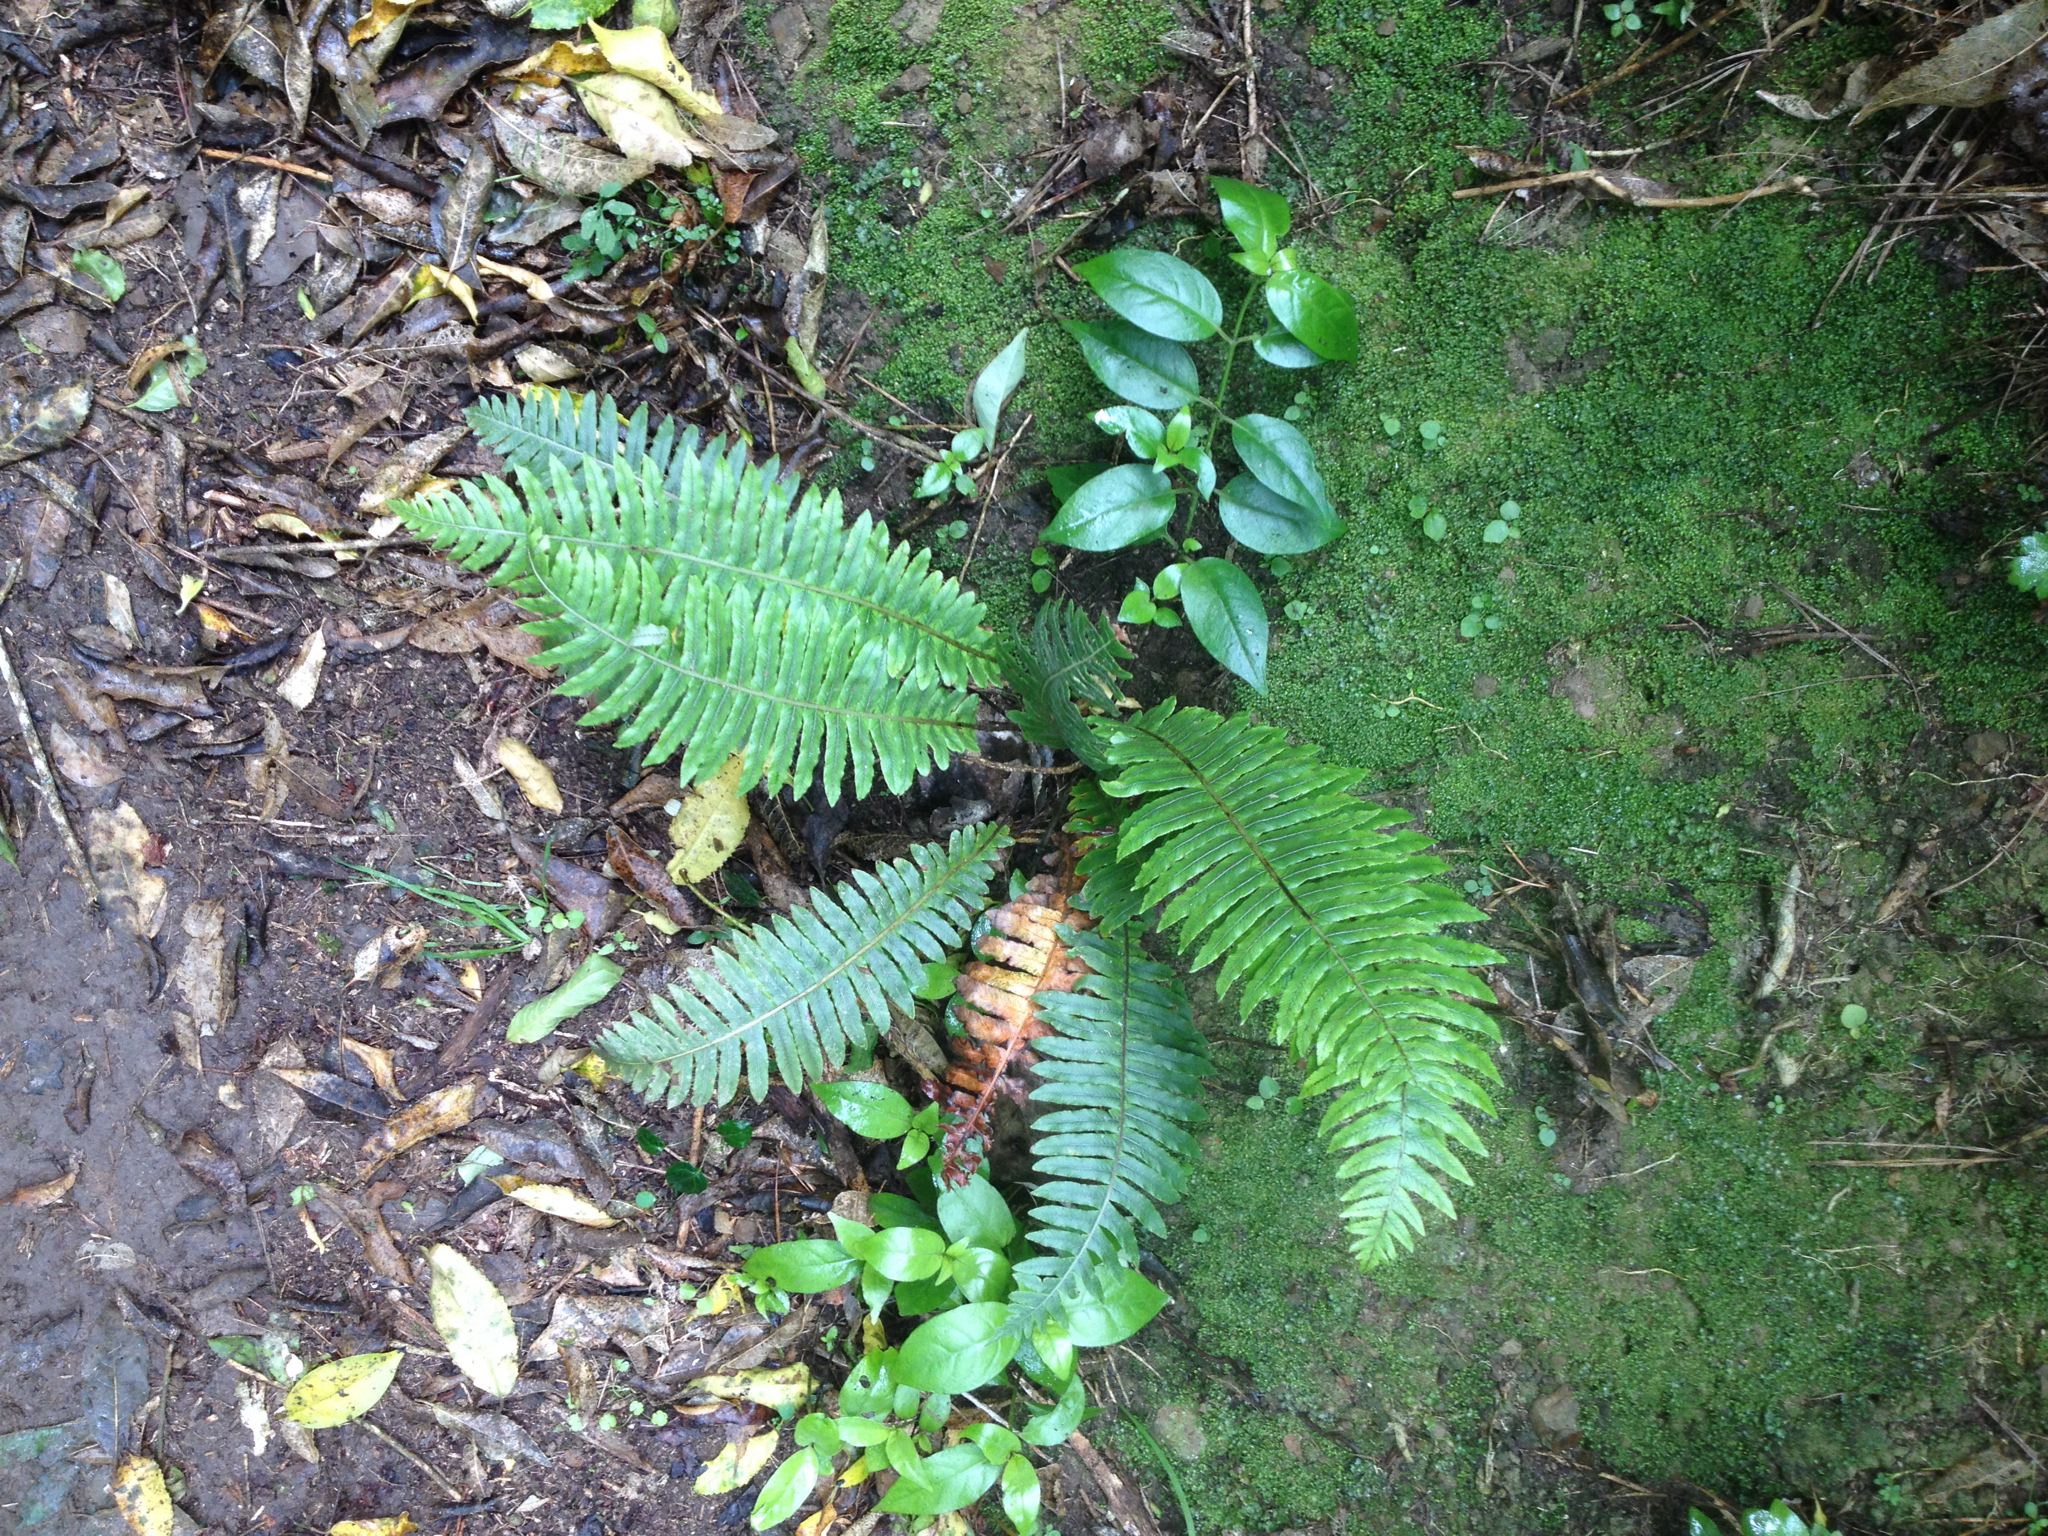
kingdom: Plantae
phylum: Tracheophyta
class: Polypodiopsida
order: Polypodiales
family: Blechnaceae
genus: Lomaria
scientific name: Lomaria discolor
